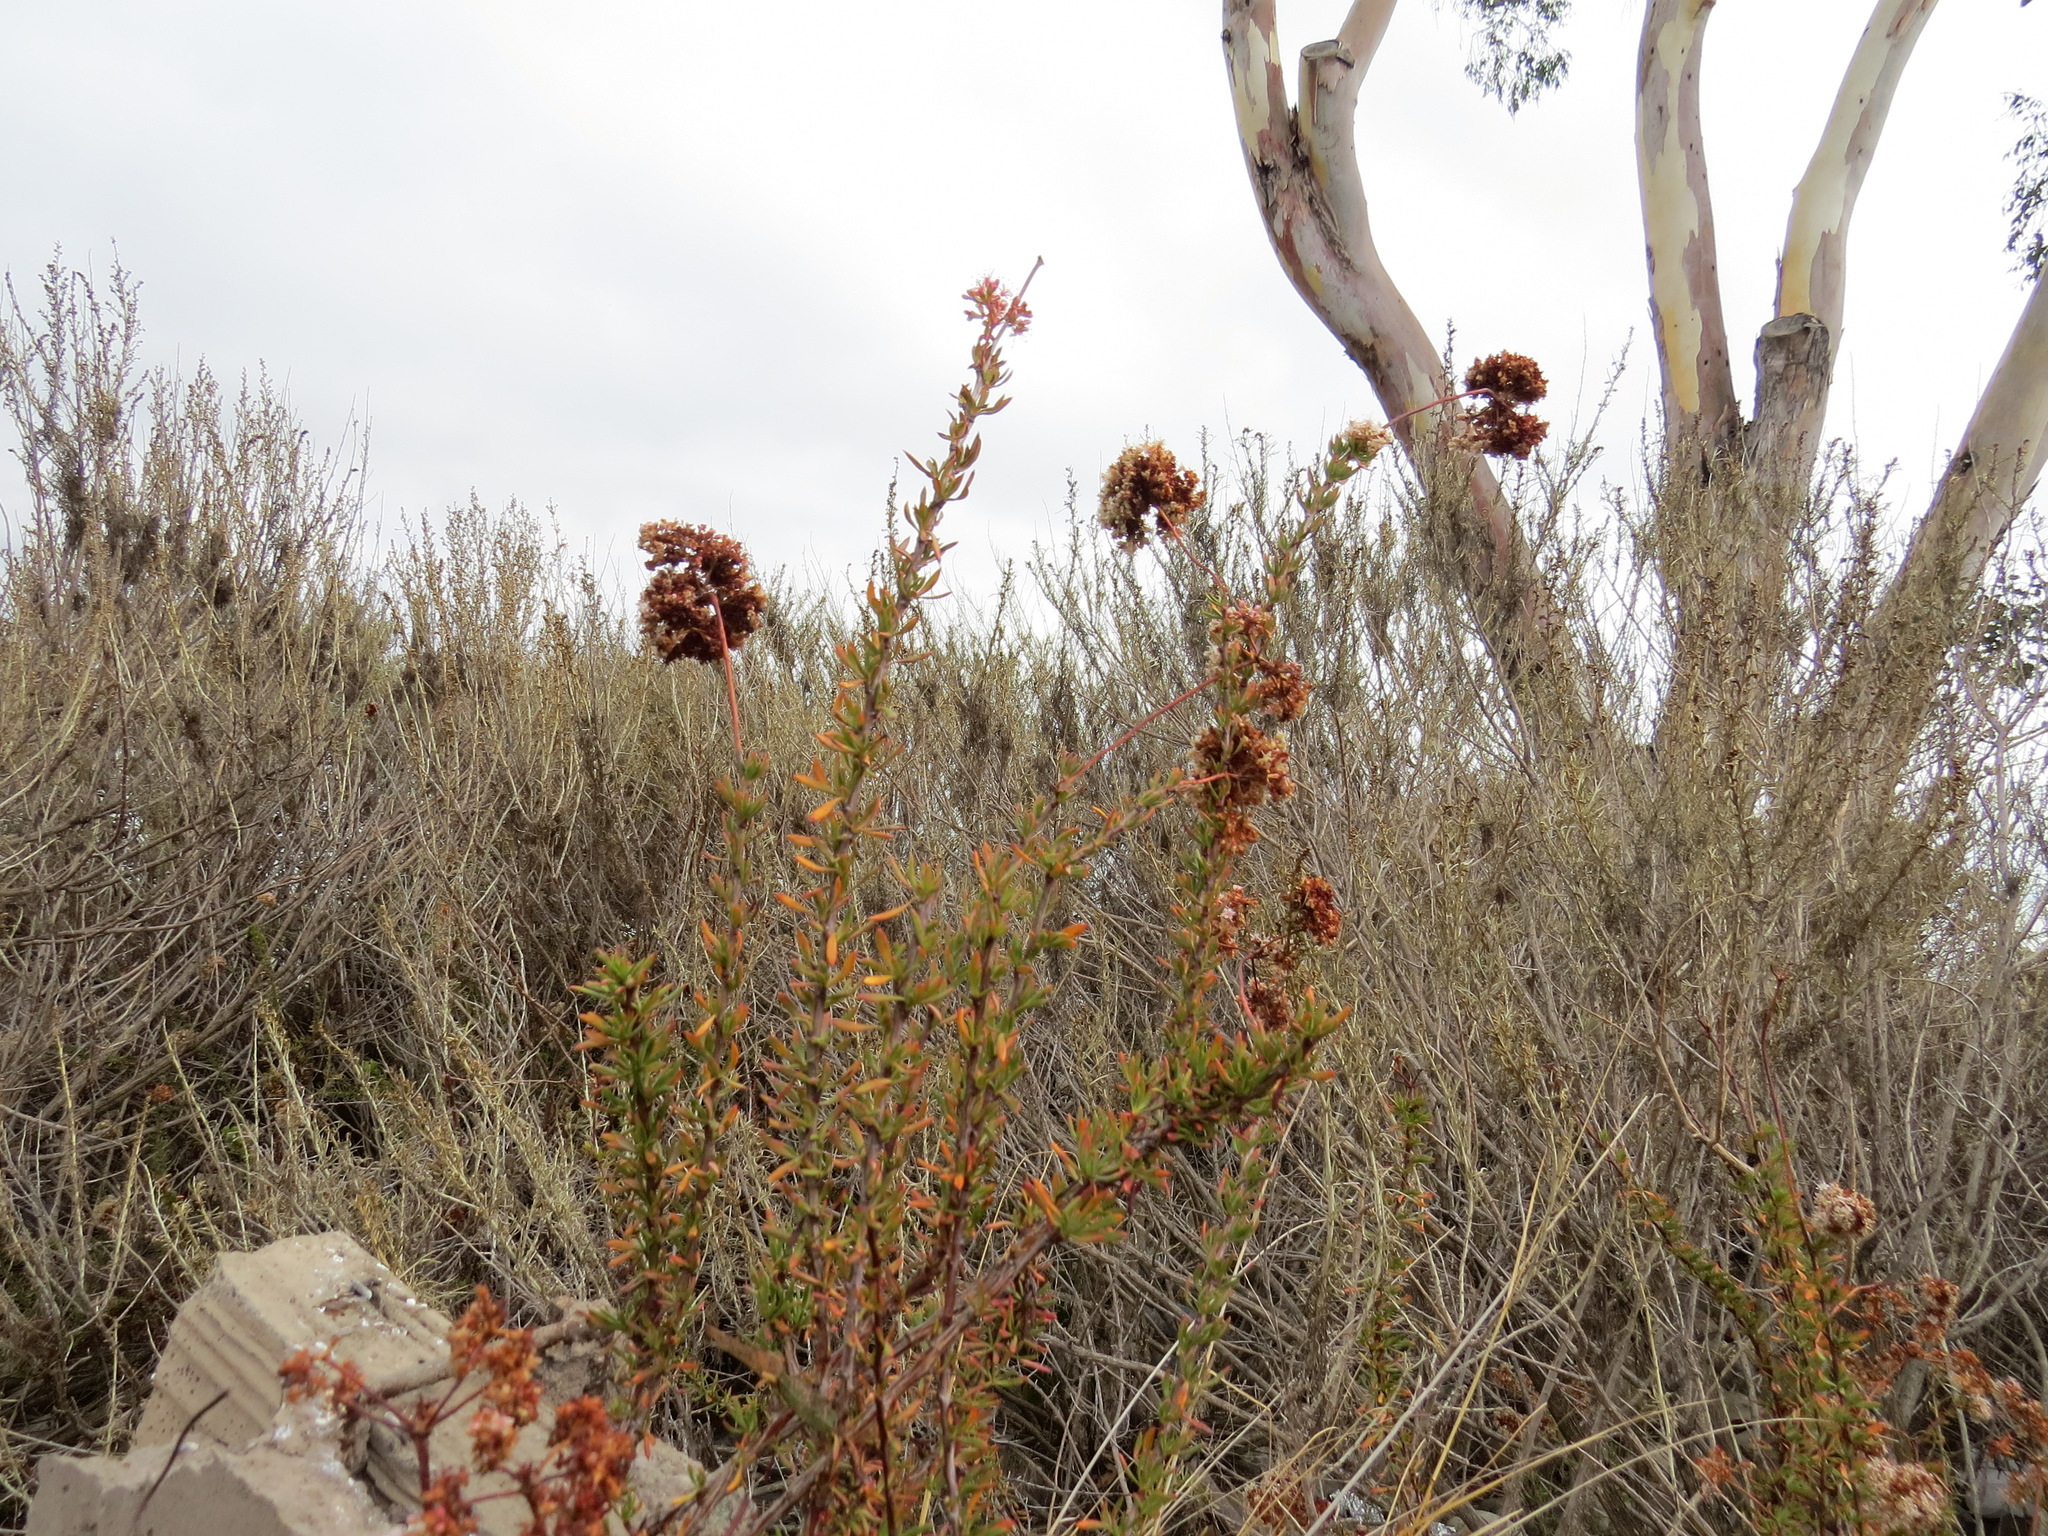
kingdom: Plantae
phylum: Tracheophyta
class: Magnoliopsida
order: Caryophyllales
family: Polygonaceae
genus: Eriogonum
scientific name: Eriogonum fasciculatum
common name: California wild buckwheat
